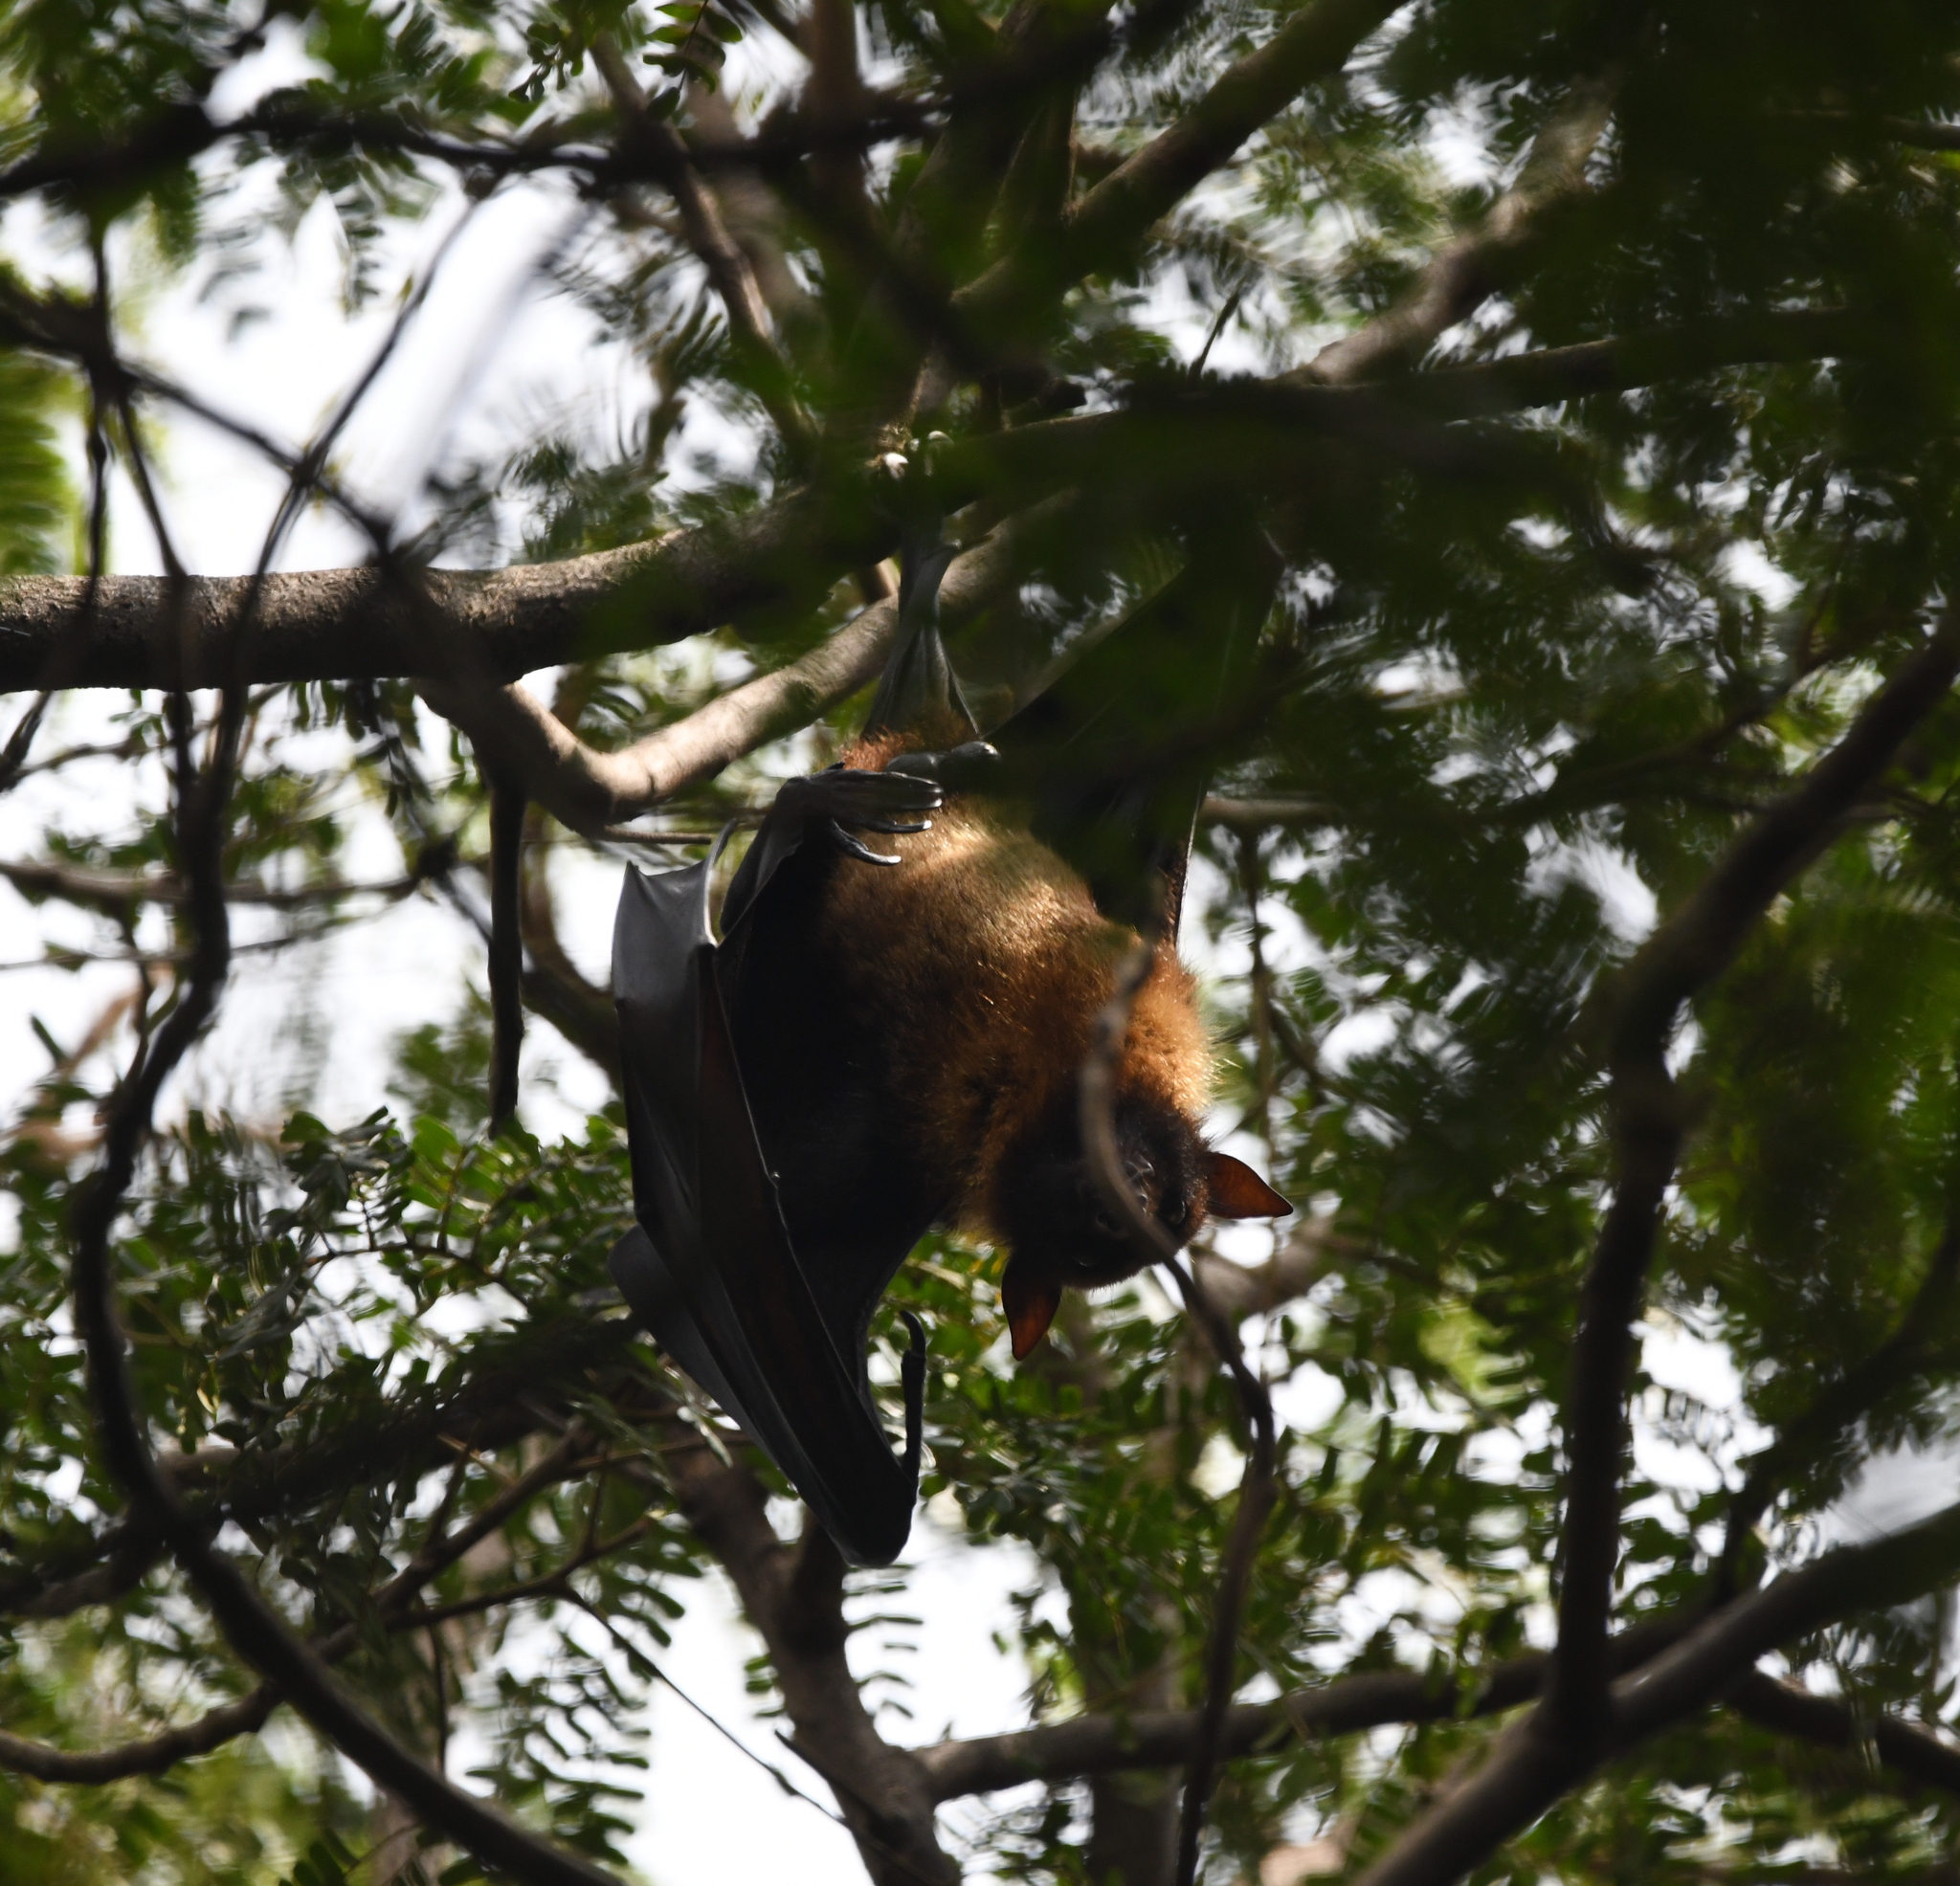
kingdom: Animalia
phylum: Chordata
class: Mammalia
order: Chiroptera
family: Pteropodidae
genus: Pteropus
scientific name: Pteropus vampyrus
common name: Large flying fox
